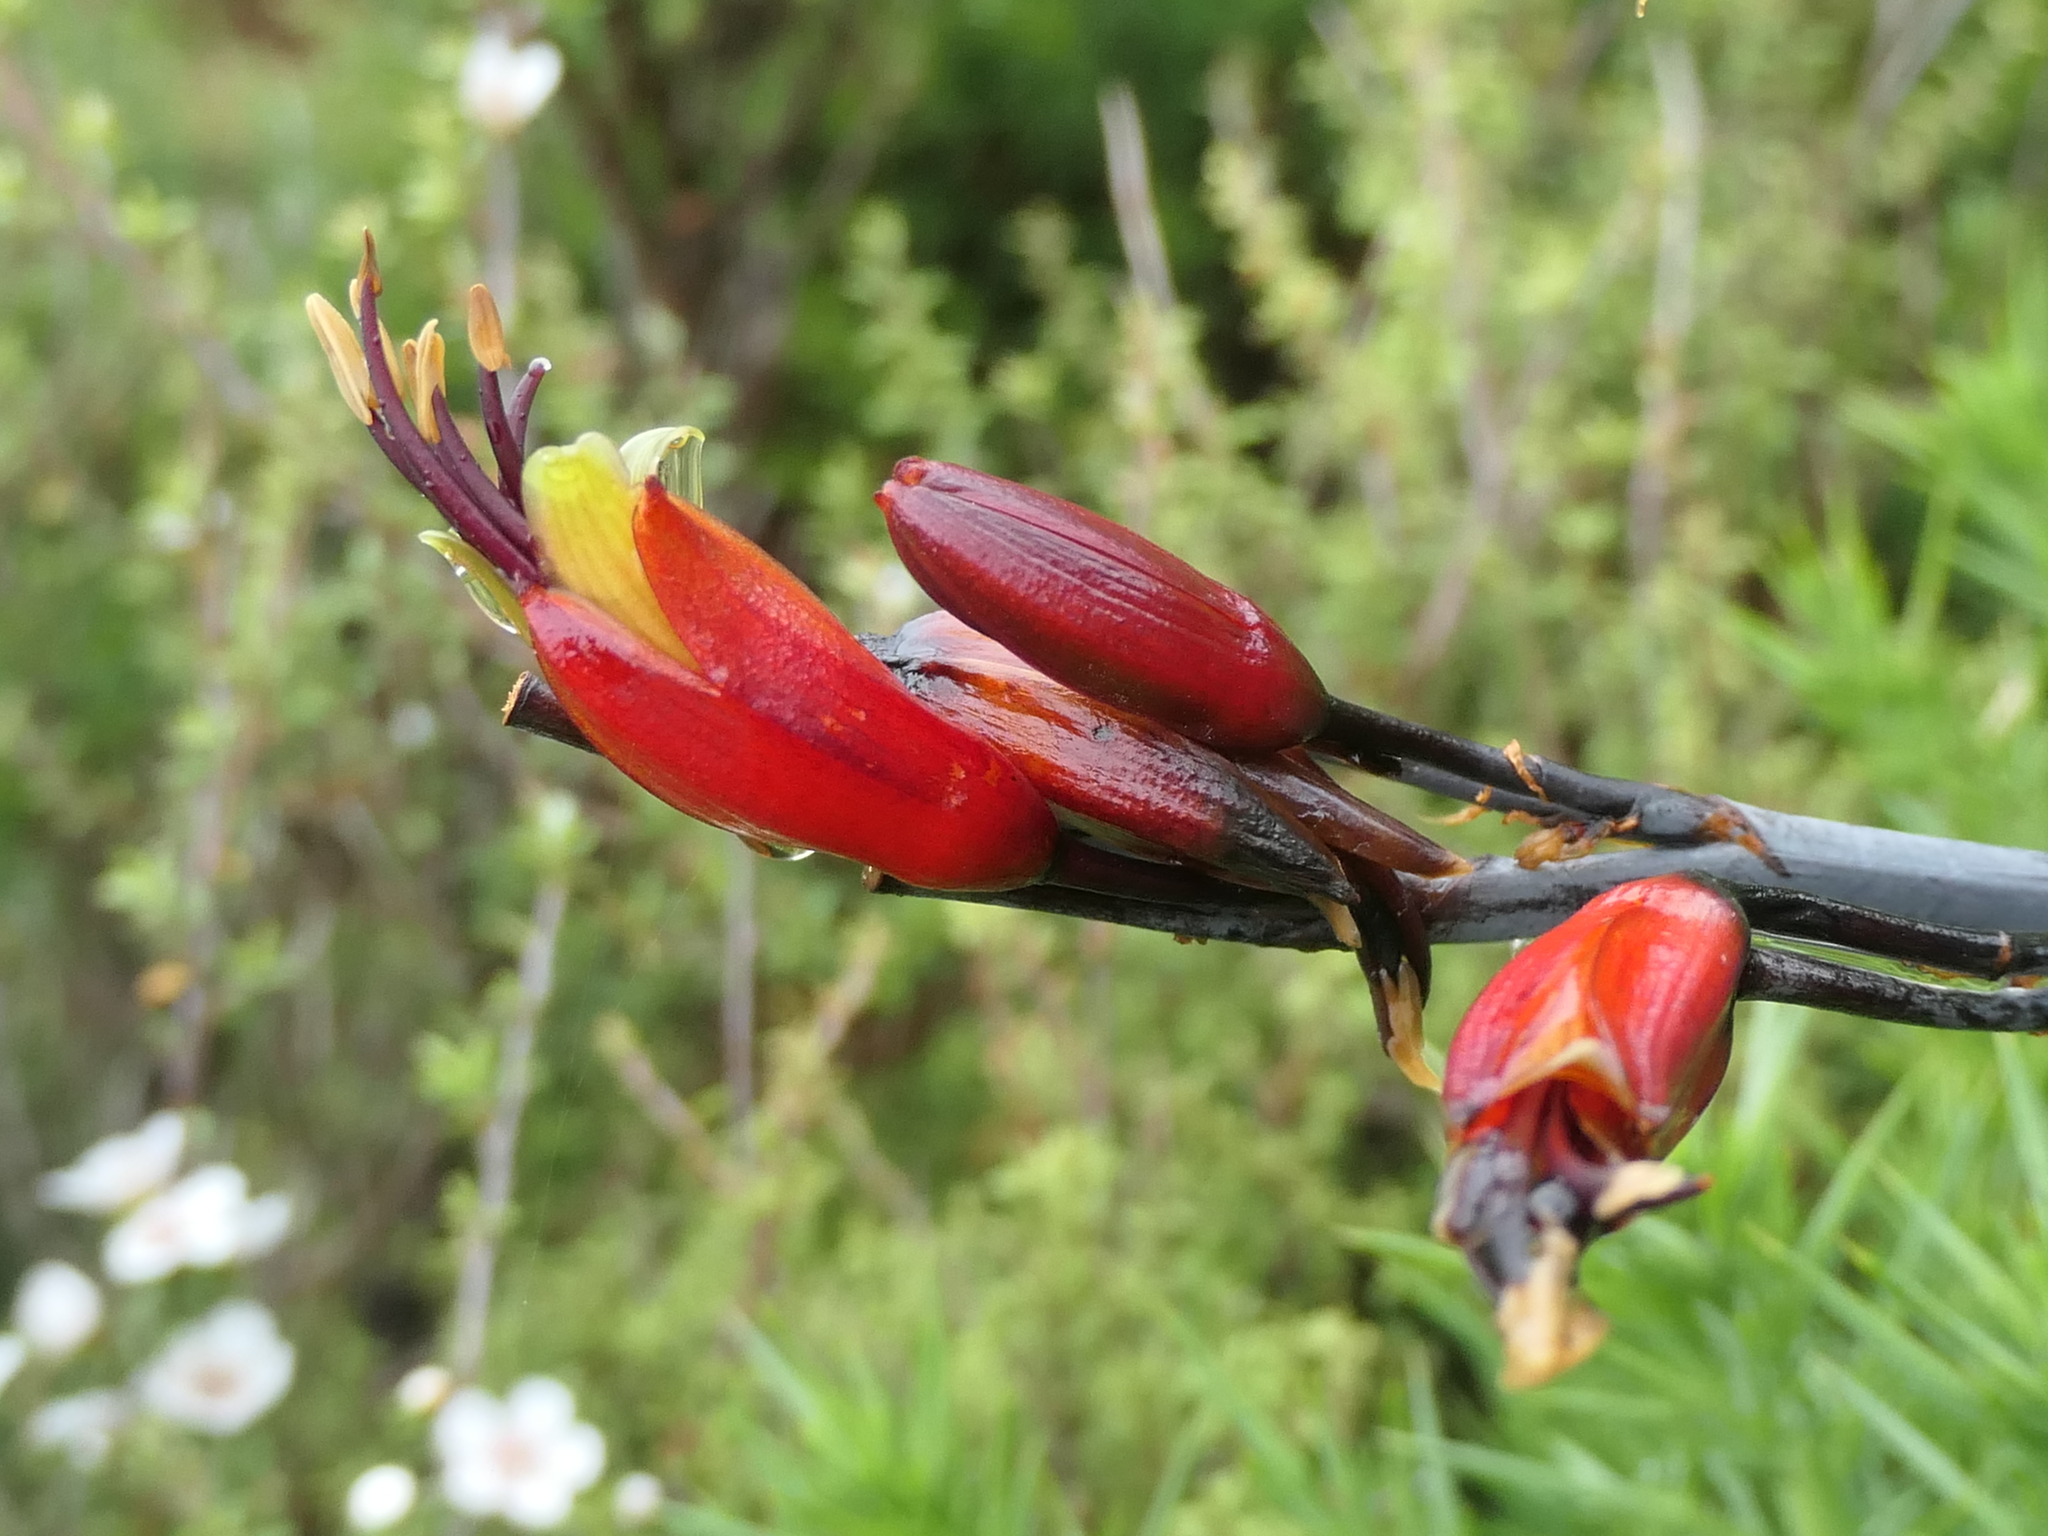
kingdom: Plantae
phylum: Tracheophyta
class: Liliopsida
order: Asparagales
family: Asphodelaceae
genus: Phormium
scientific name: Phormium colensoi
